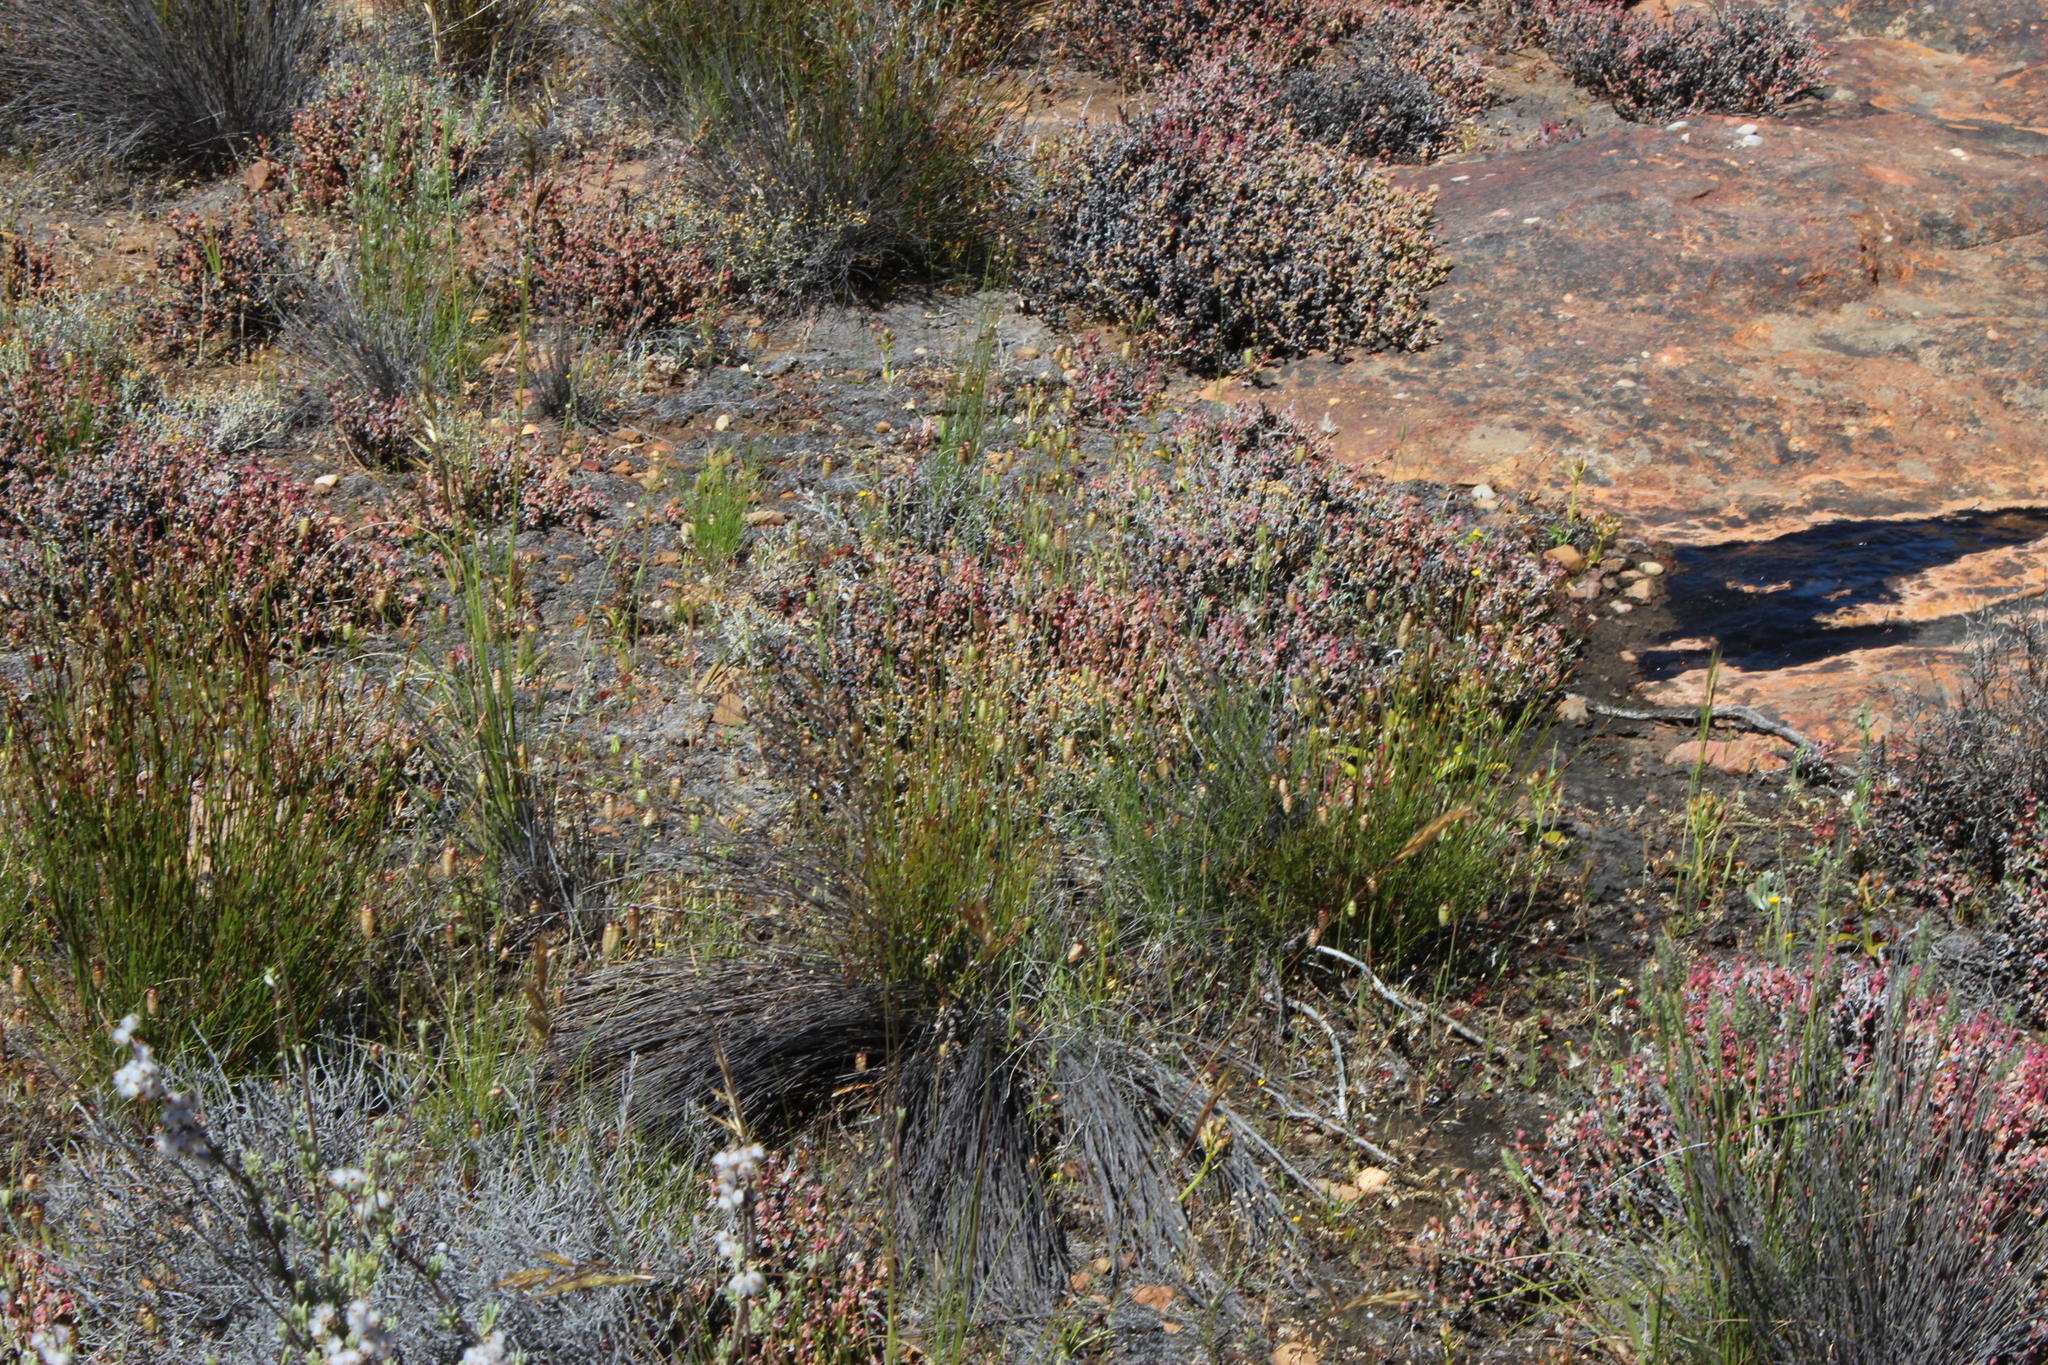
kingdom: Plantae
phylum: Tracheophyta
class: Liliopsida
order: Poales
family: Poaceae
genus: Briza
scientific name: Briza maxima
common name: Big quakinggrass
